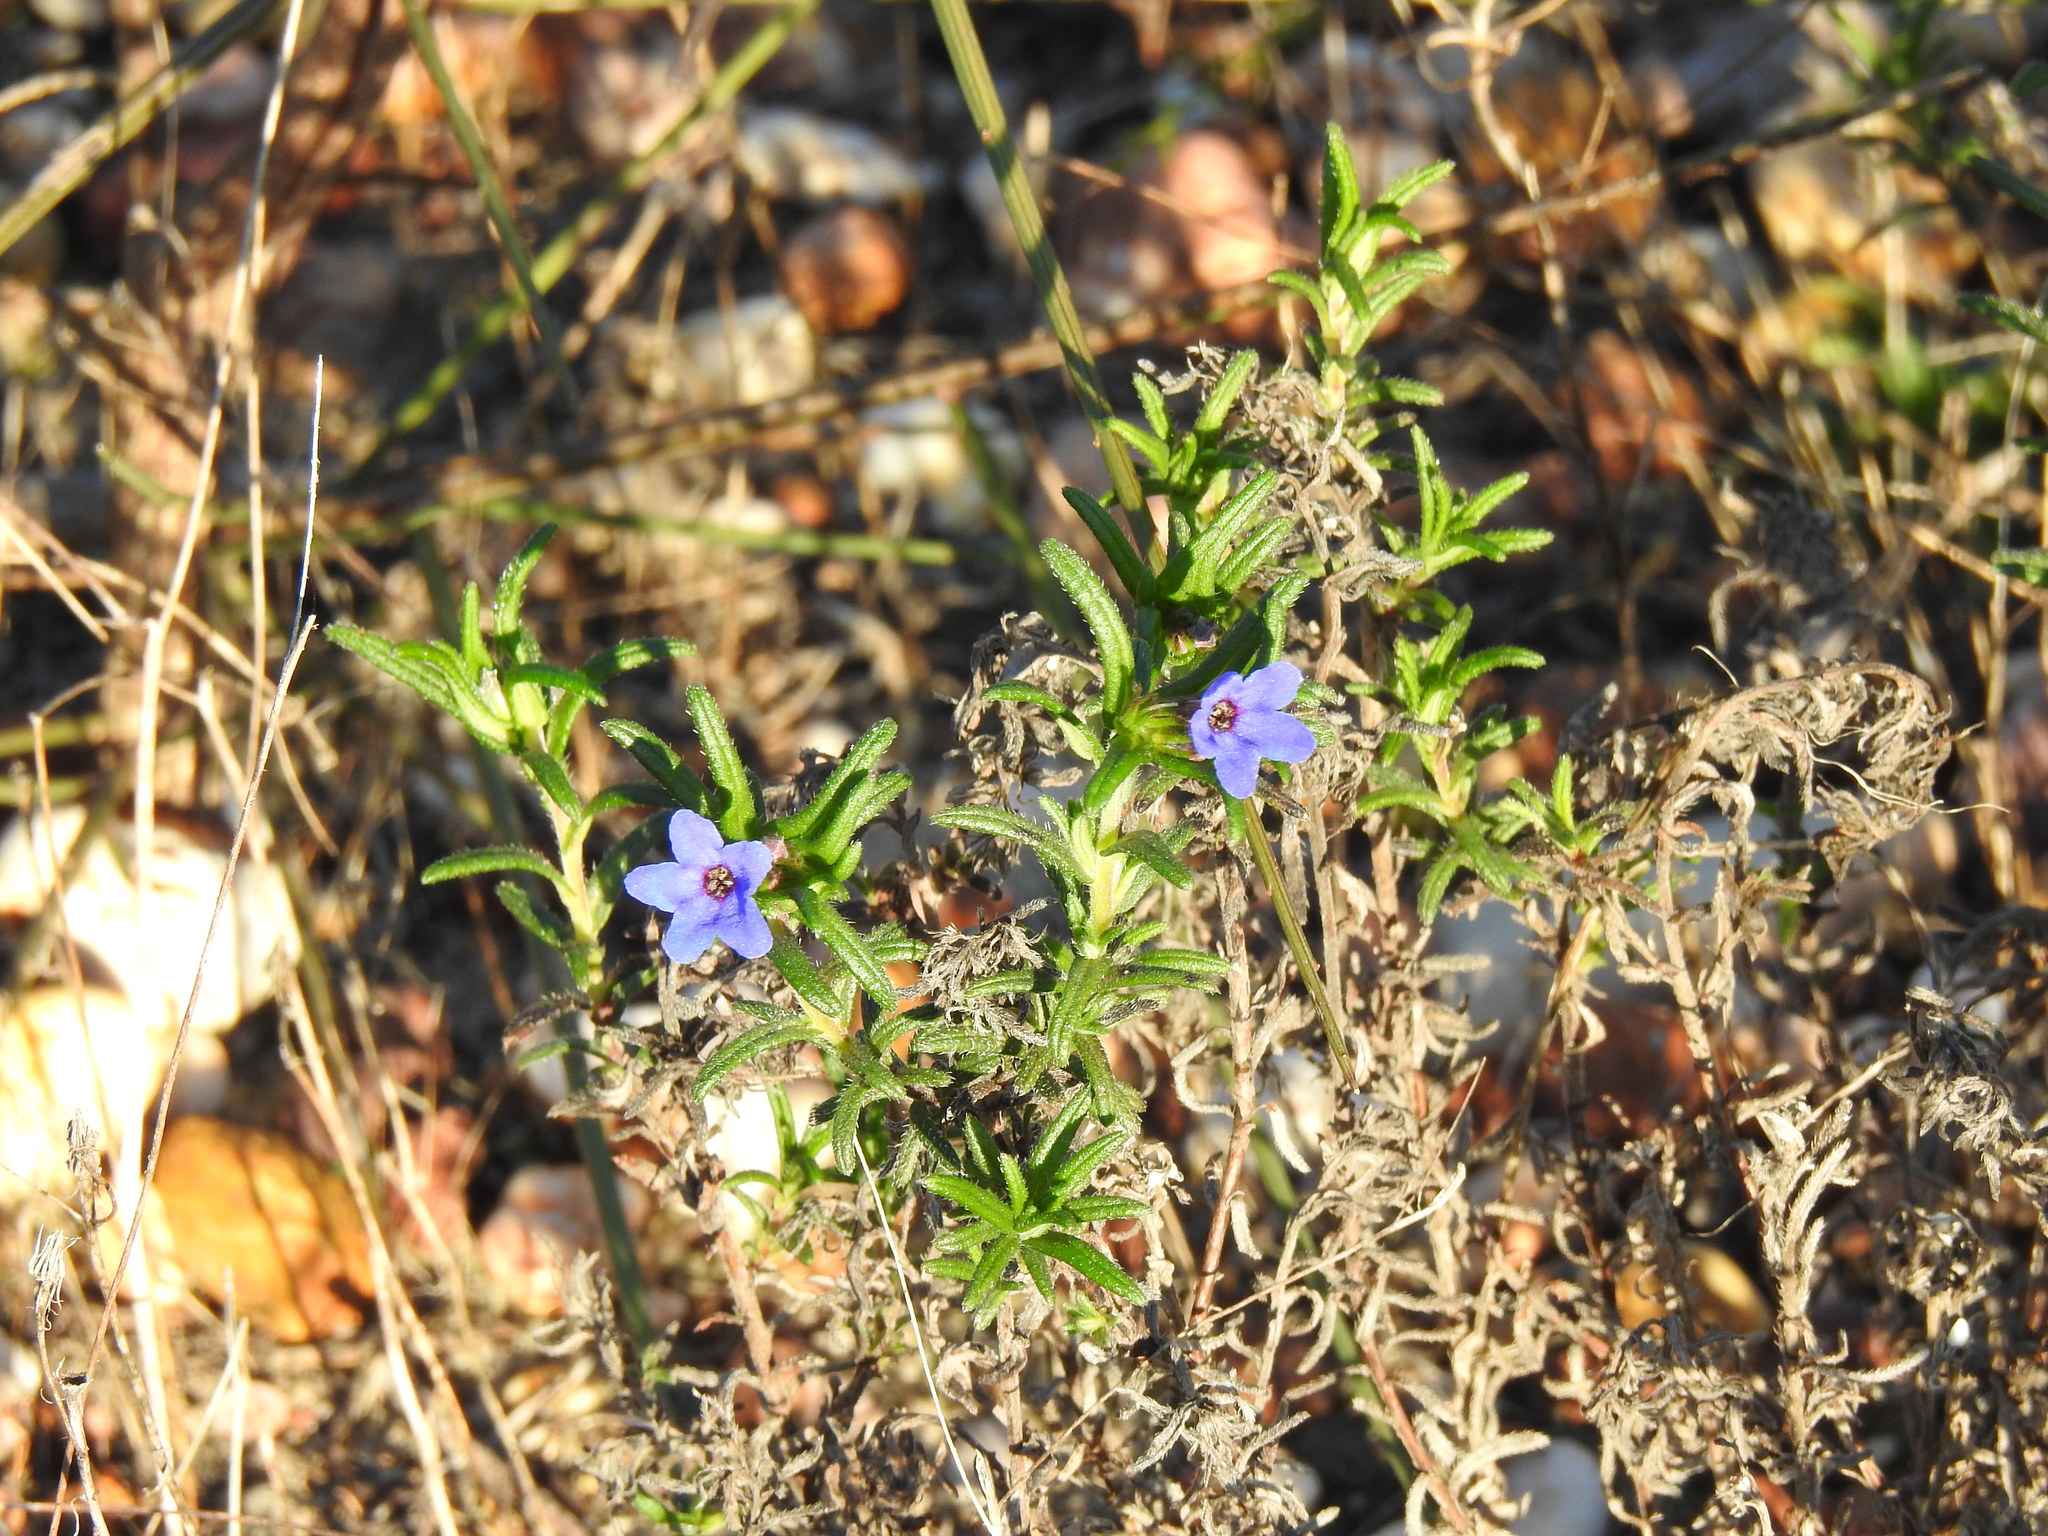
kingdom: Plantae
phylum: Tracheophyta
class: Magnoliopsida
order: Boraginales
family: Boraginaceae
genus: Glandora
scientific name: Glandora prostrata
